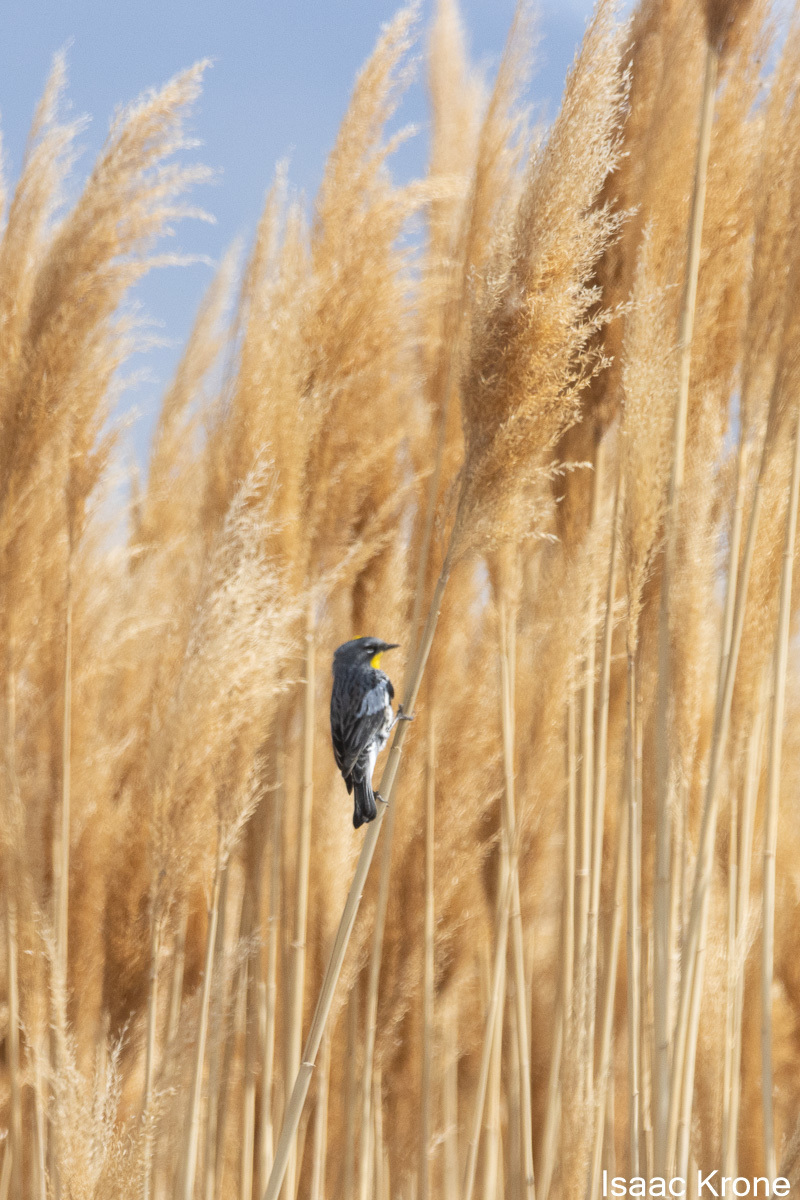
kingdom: Animalia
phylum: Chordata
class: Aves
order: Passeriformes
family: Parulidae
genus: Setophaga
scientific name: Setophaga coronata
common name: Myrtle warbler
